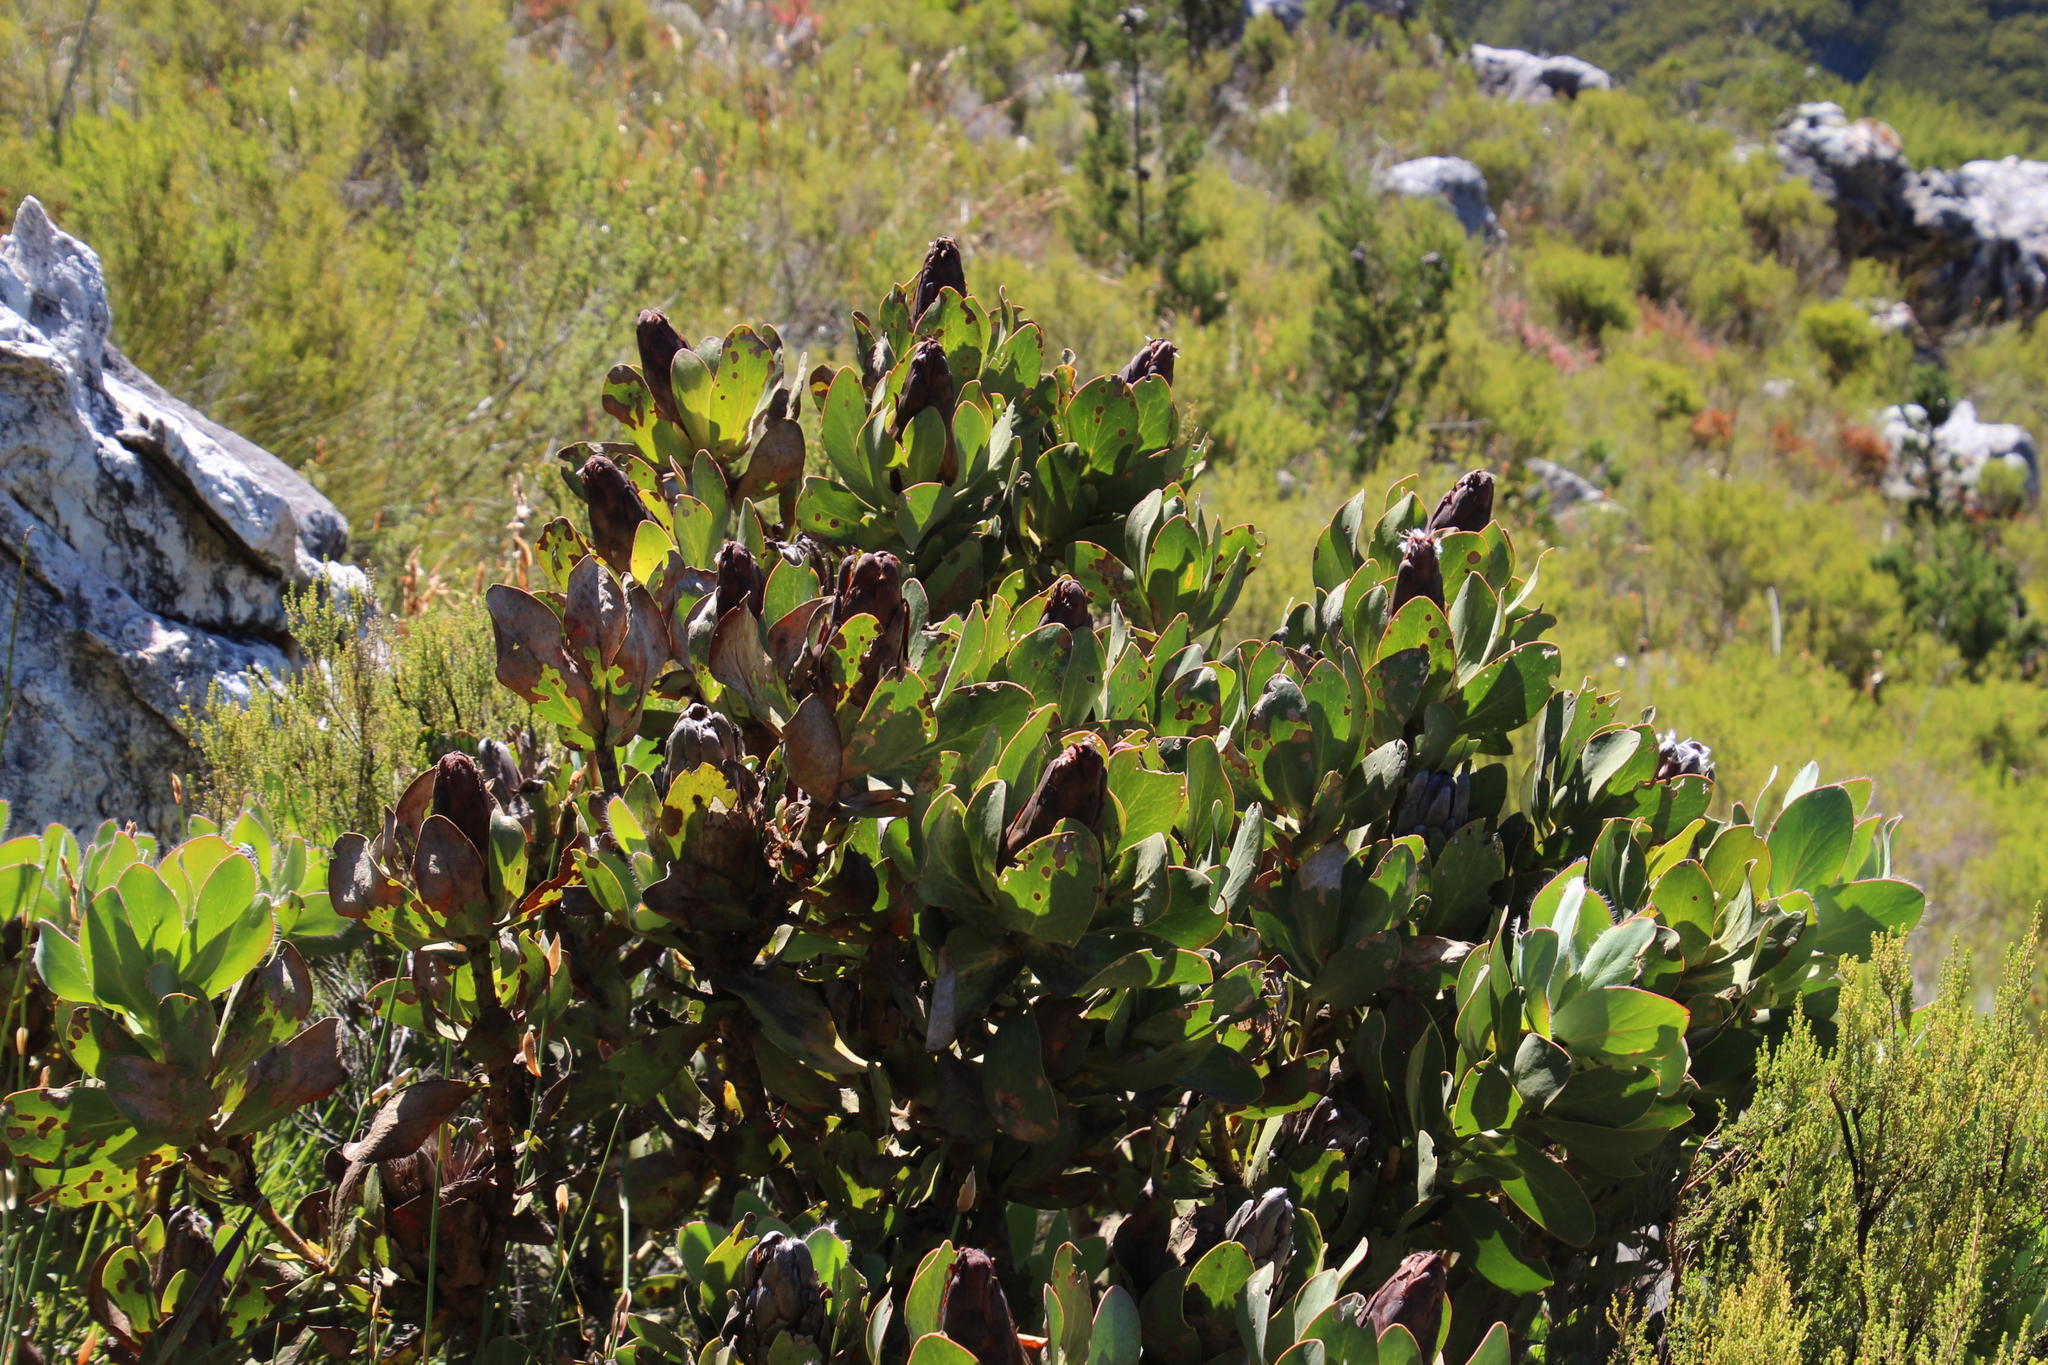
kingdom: Plantae
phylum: Tracheophyta
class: Magnoliopsida
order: Proteales
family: Proteaceae
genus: Protea
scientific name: Protea grandiceps
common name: Red sugarbush
